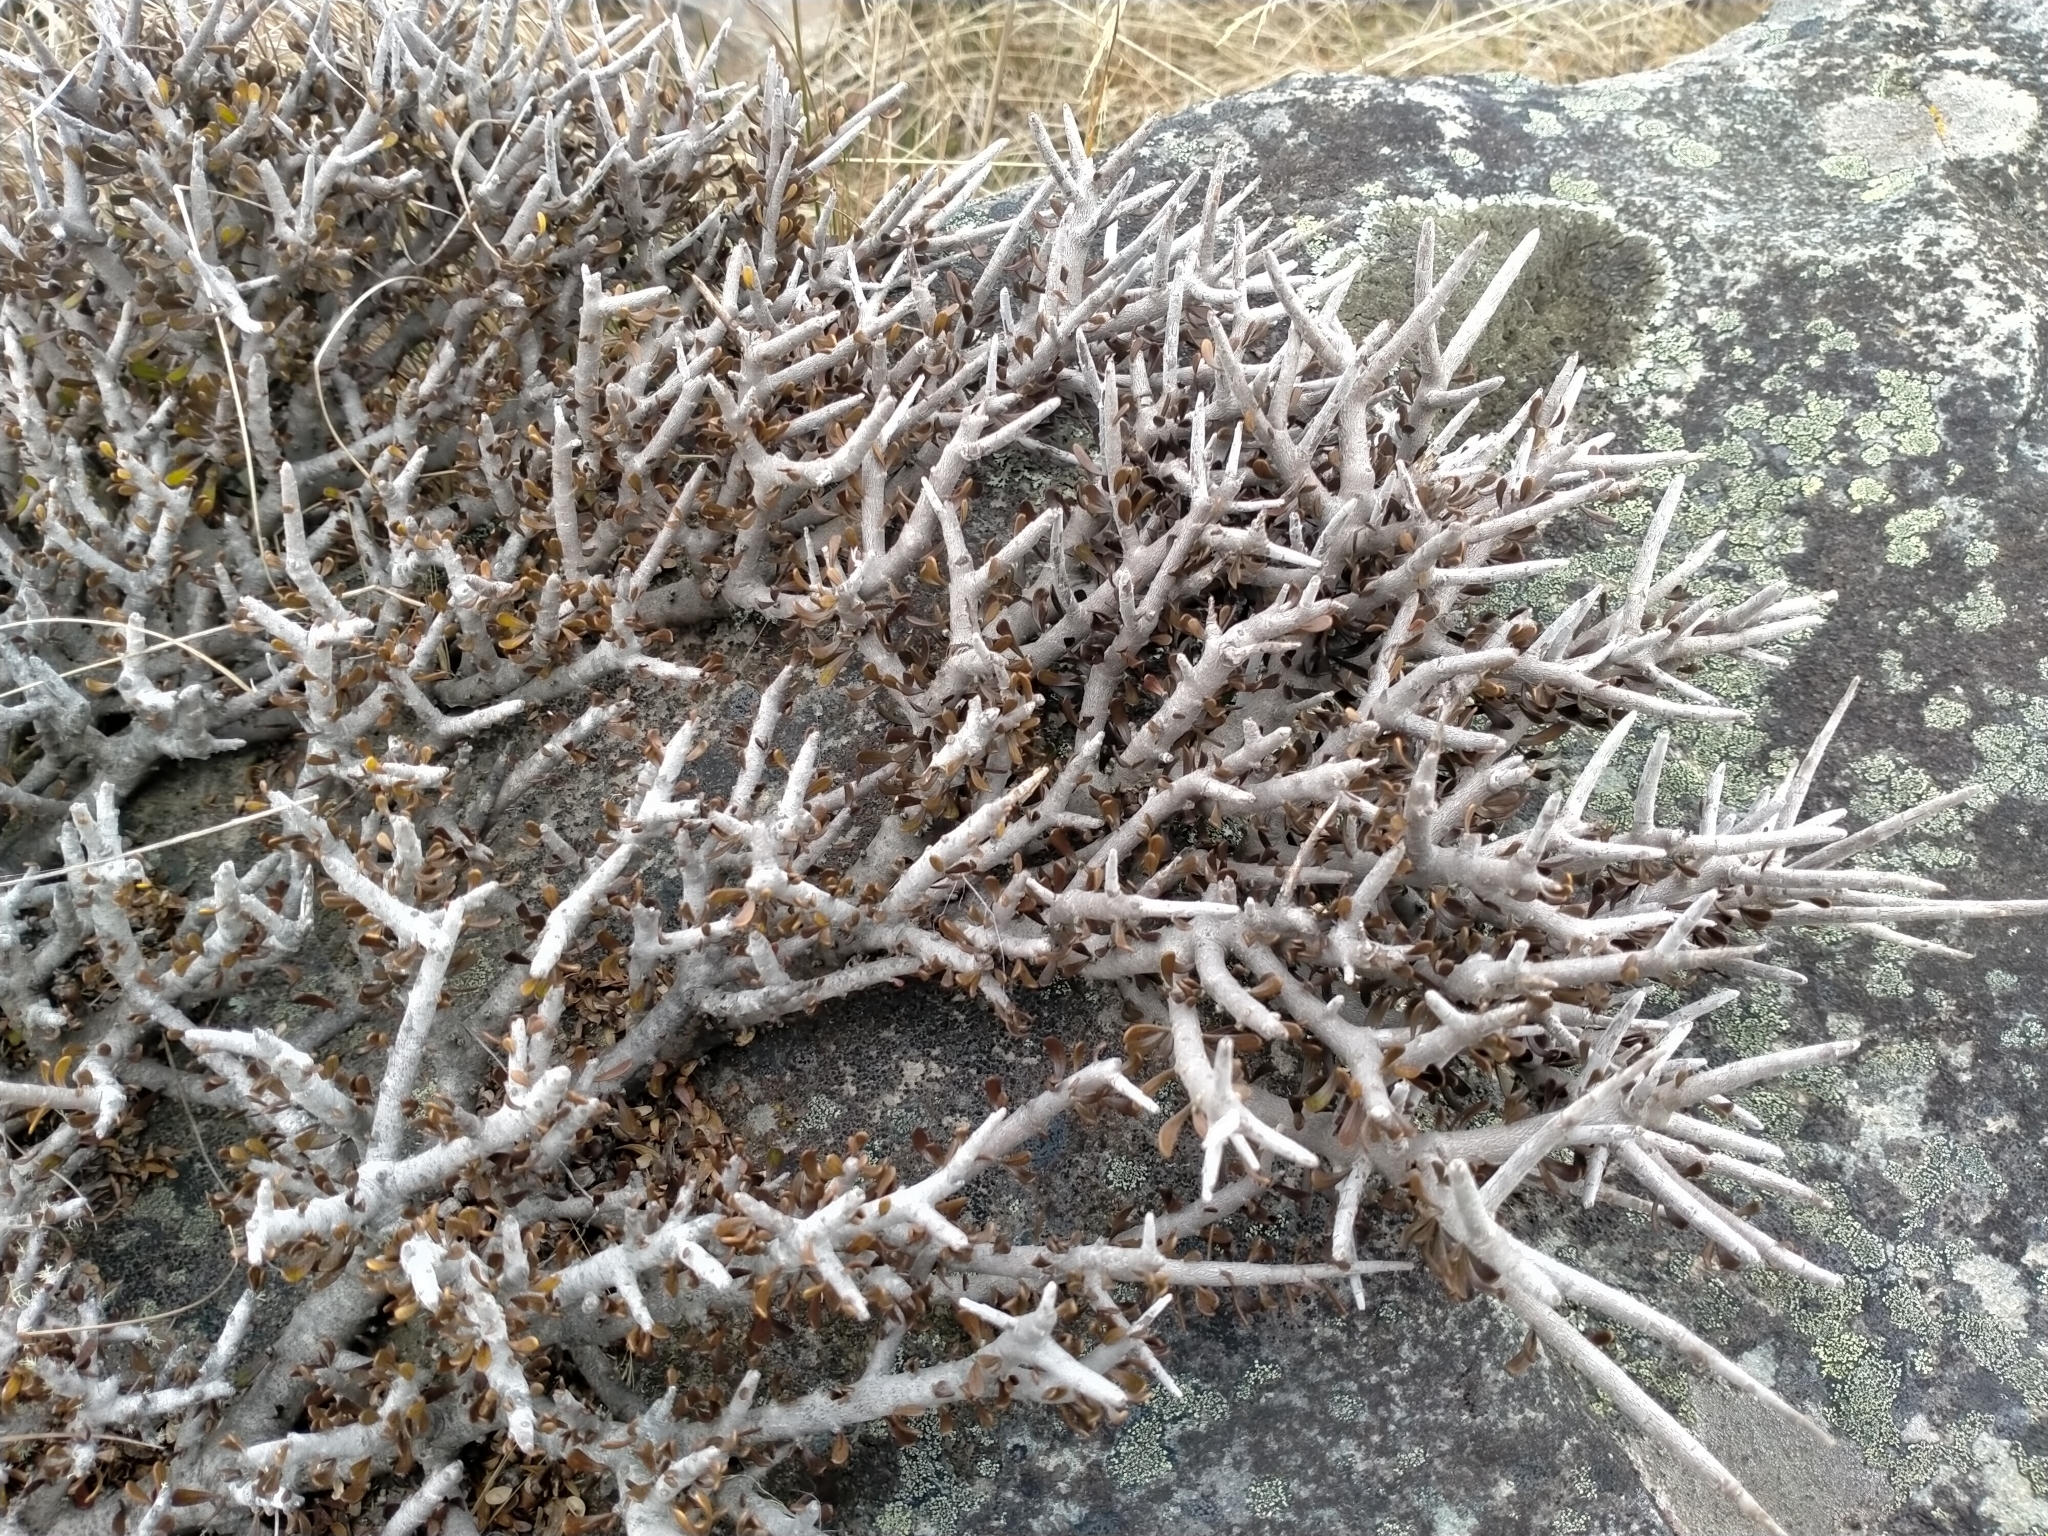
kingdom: Plantae
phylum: Tracheophyta
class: Magnoliopsida
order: Malpighiales
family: Violaceae
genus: Melicytus
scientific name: Melicytus alpinus
